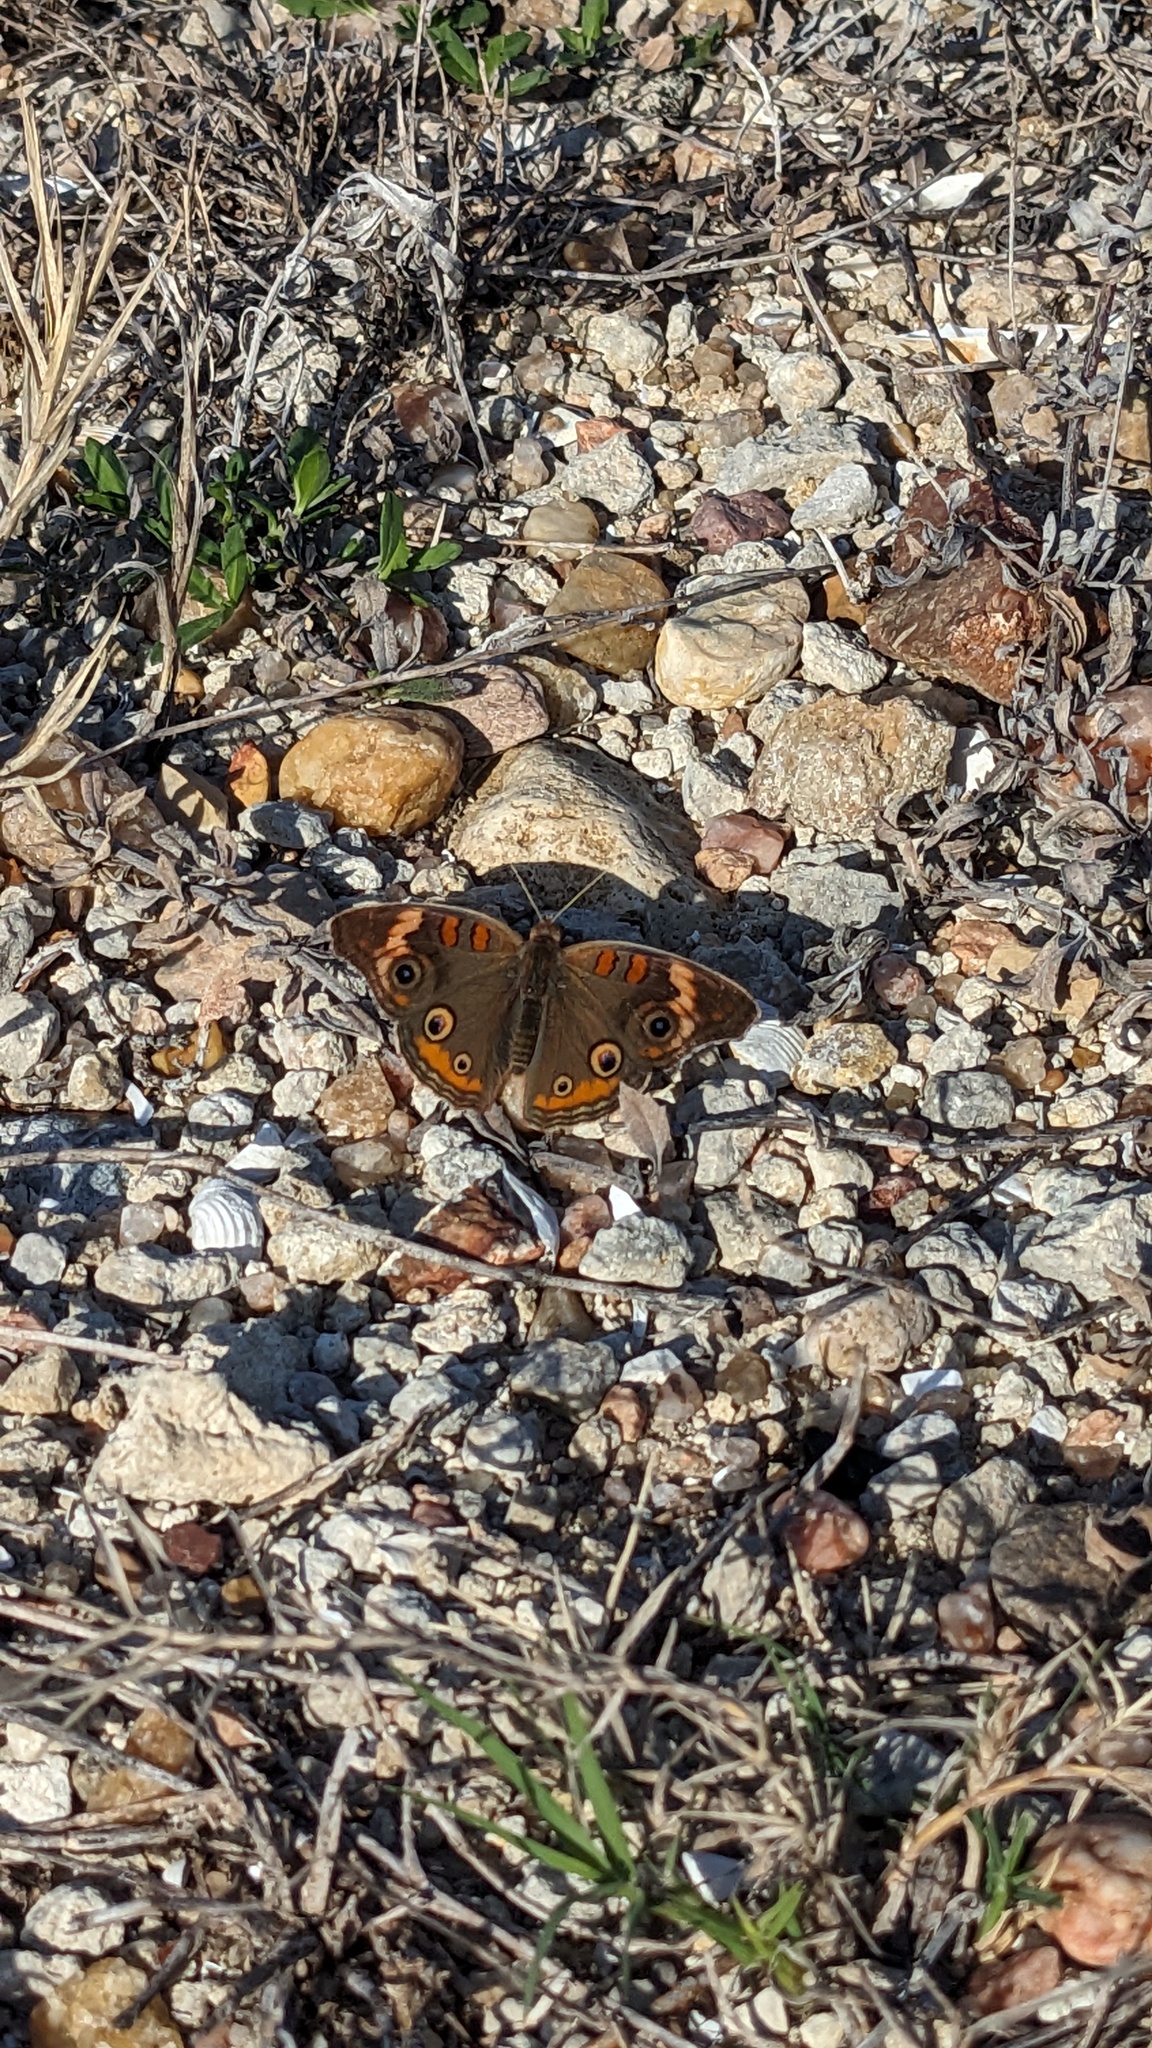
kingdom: Animalia
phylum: Arthropoda
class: Insecta
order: Lepidoptera
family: Nymphalidae
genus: Junonia
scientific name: Junonia coenia
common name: Common buckeye
